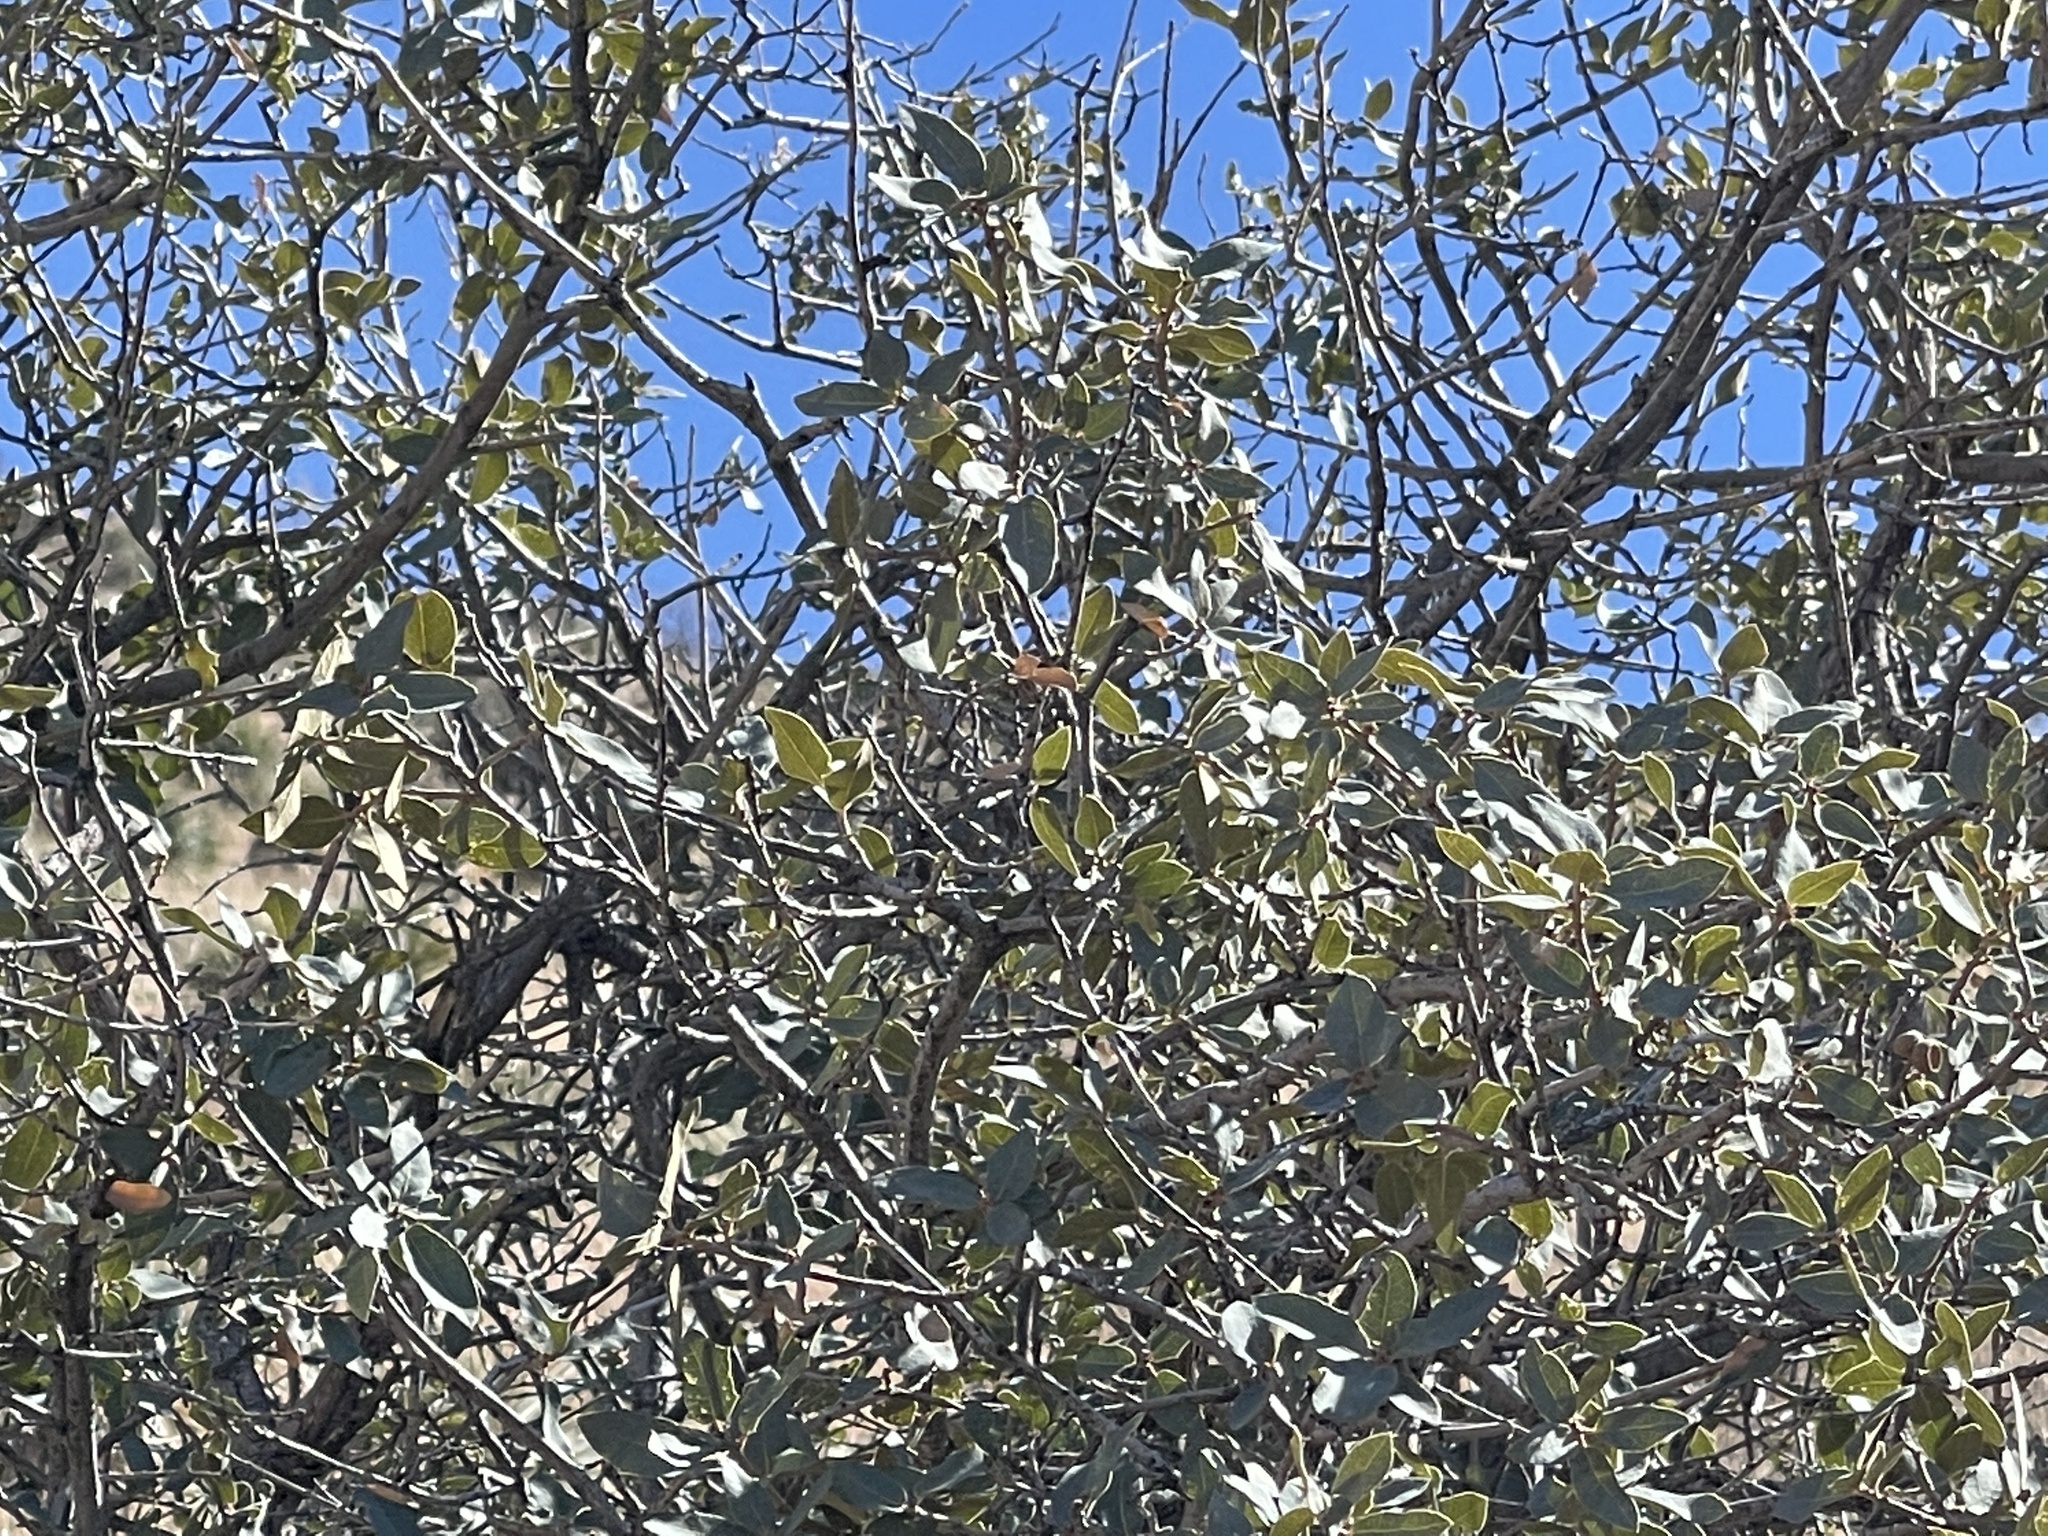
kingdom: Plantae
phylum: Tracheophyta
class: Magnoliopsida
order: Fagales
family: Fagaceae
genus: Quercus
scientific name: Quercus grisea
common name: Gray oak
